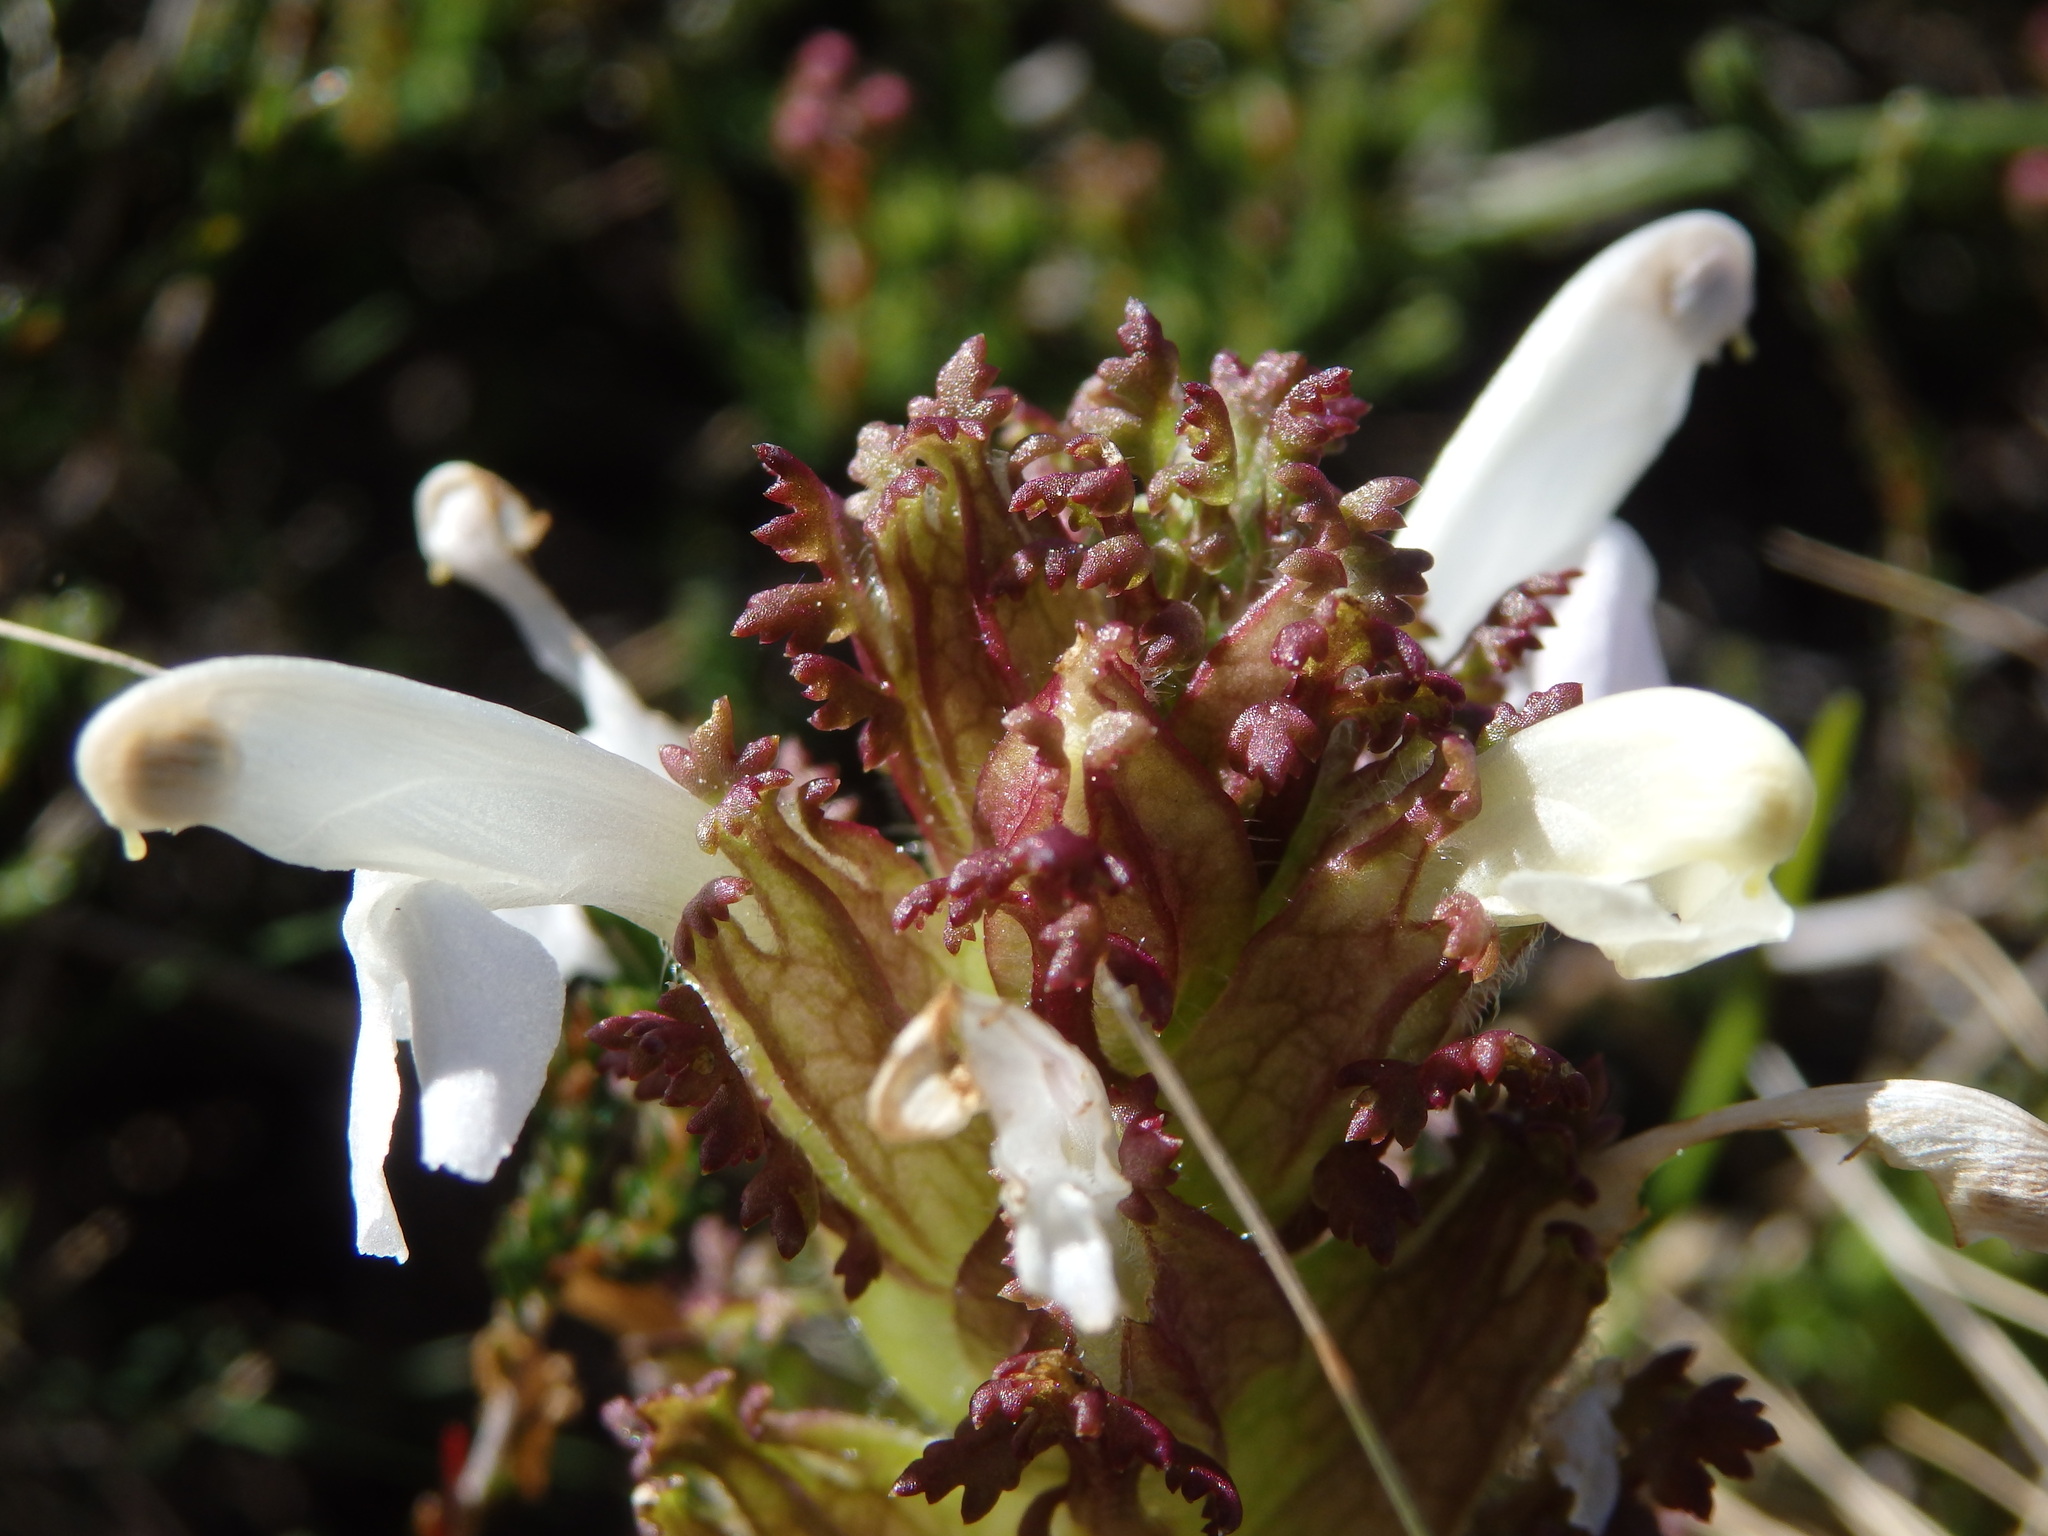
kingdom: Plantae
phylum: Tracheophyta
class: Magnoliopsida
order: Lamiales
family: Orobanchaceae
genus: Pedicularis
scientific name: Pedicularis sylvatica
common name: Lousewort
